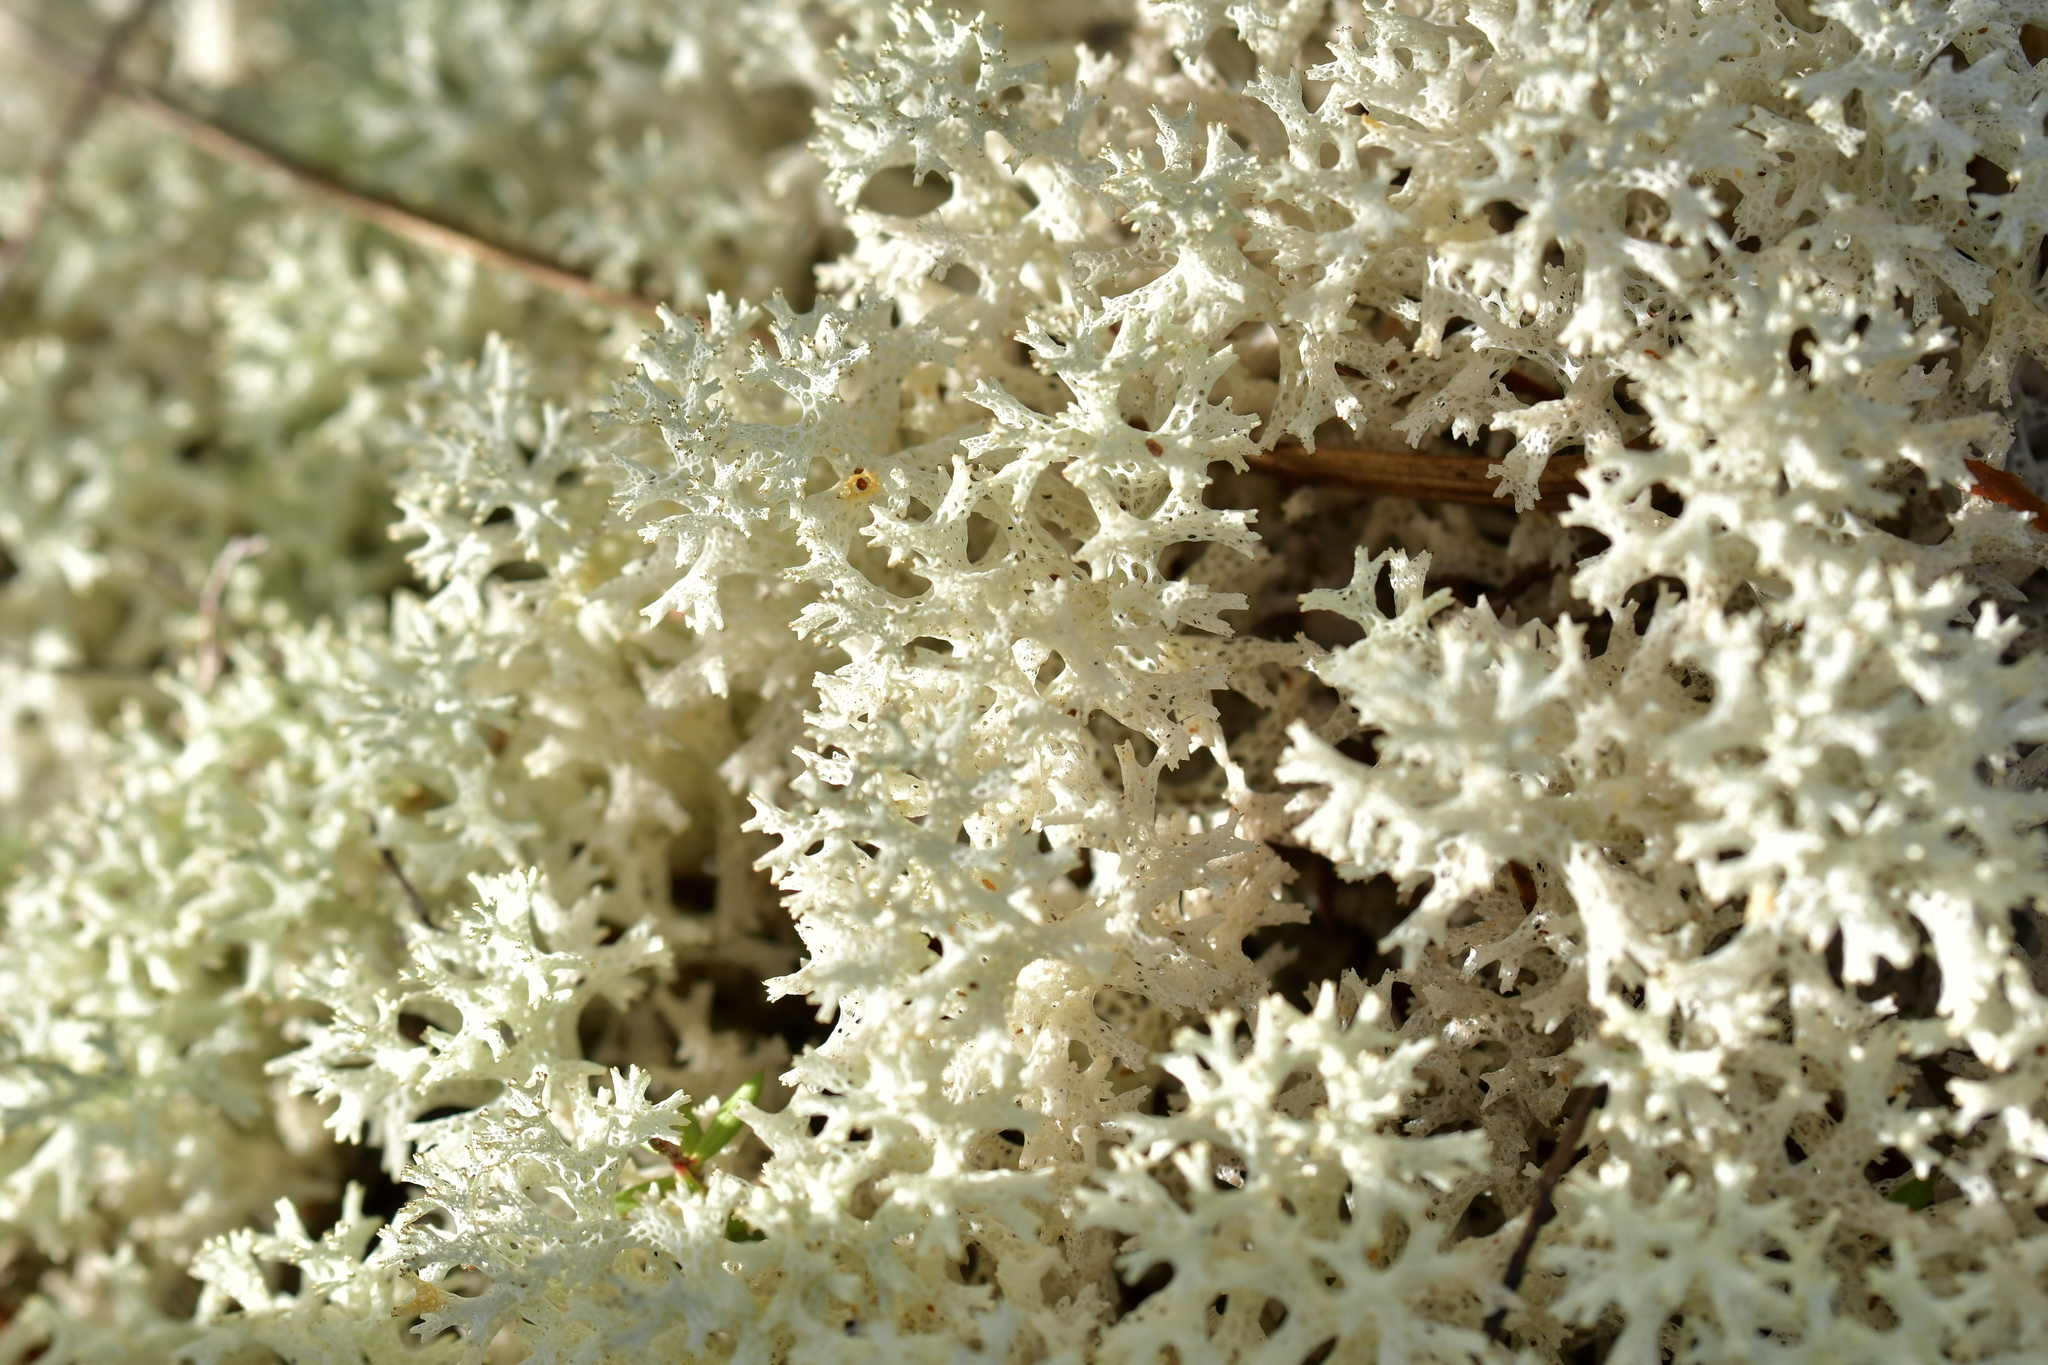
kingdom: Fungi
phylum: Ascomycota
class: Lecanoromycetes
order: Lecanorales
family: Cladoniaceae
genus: Pulchrocladia
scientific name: Pulchrocladia retipora
